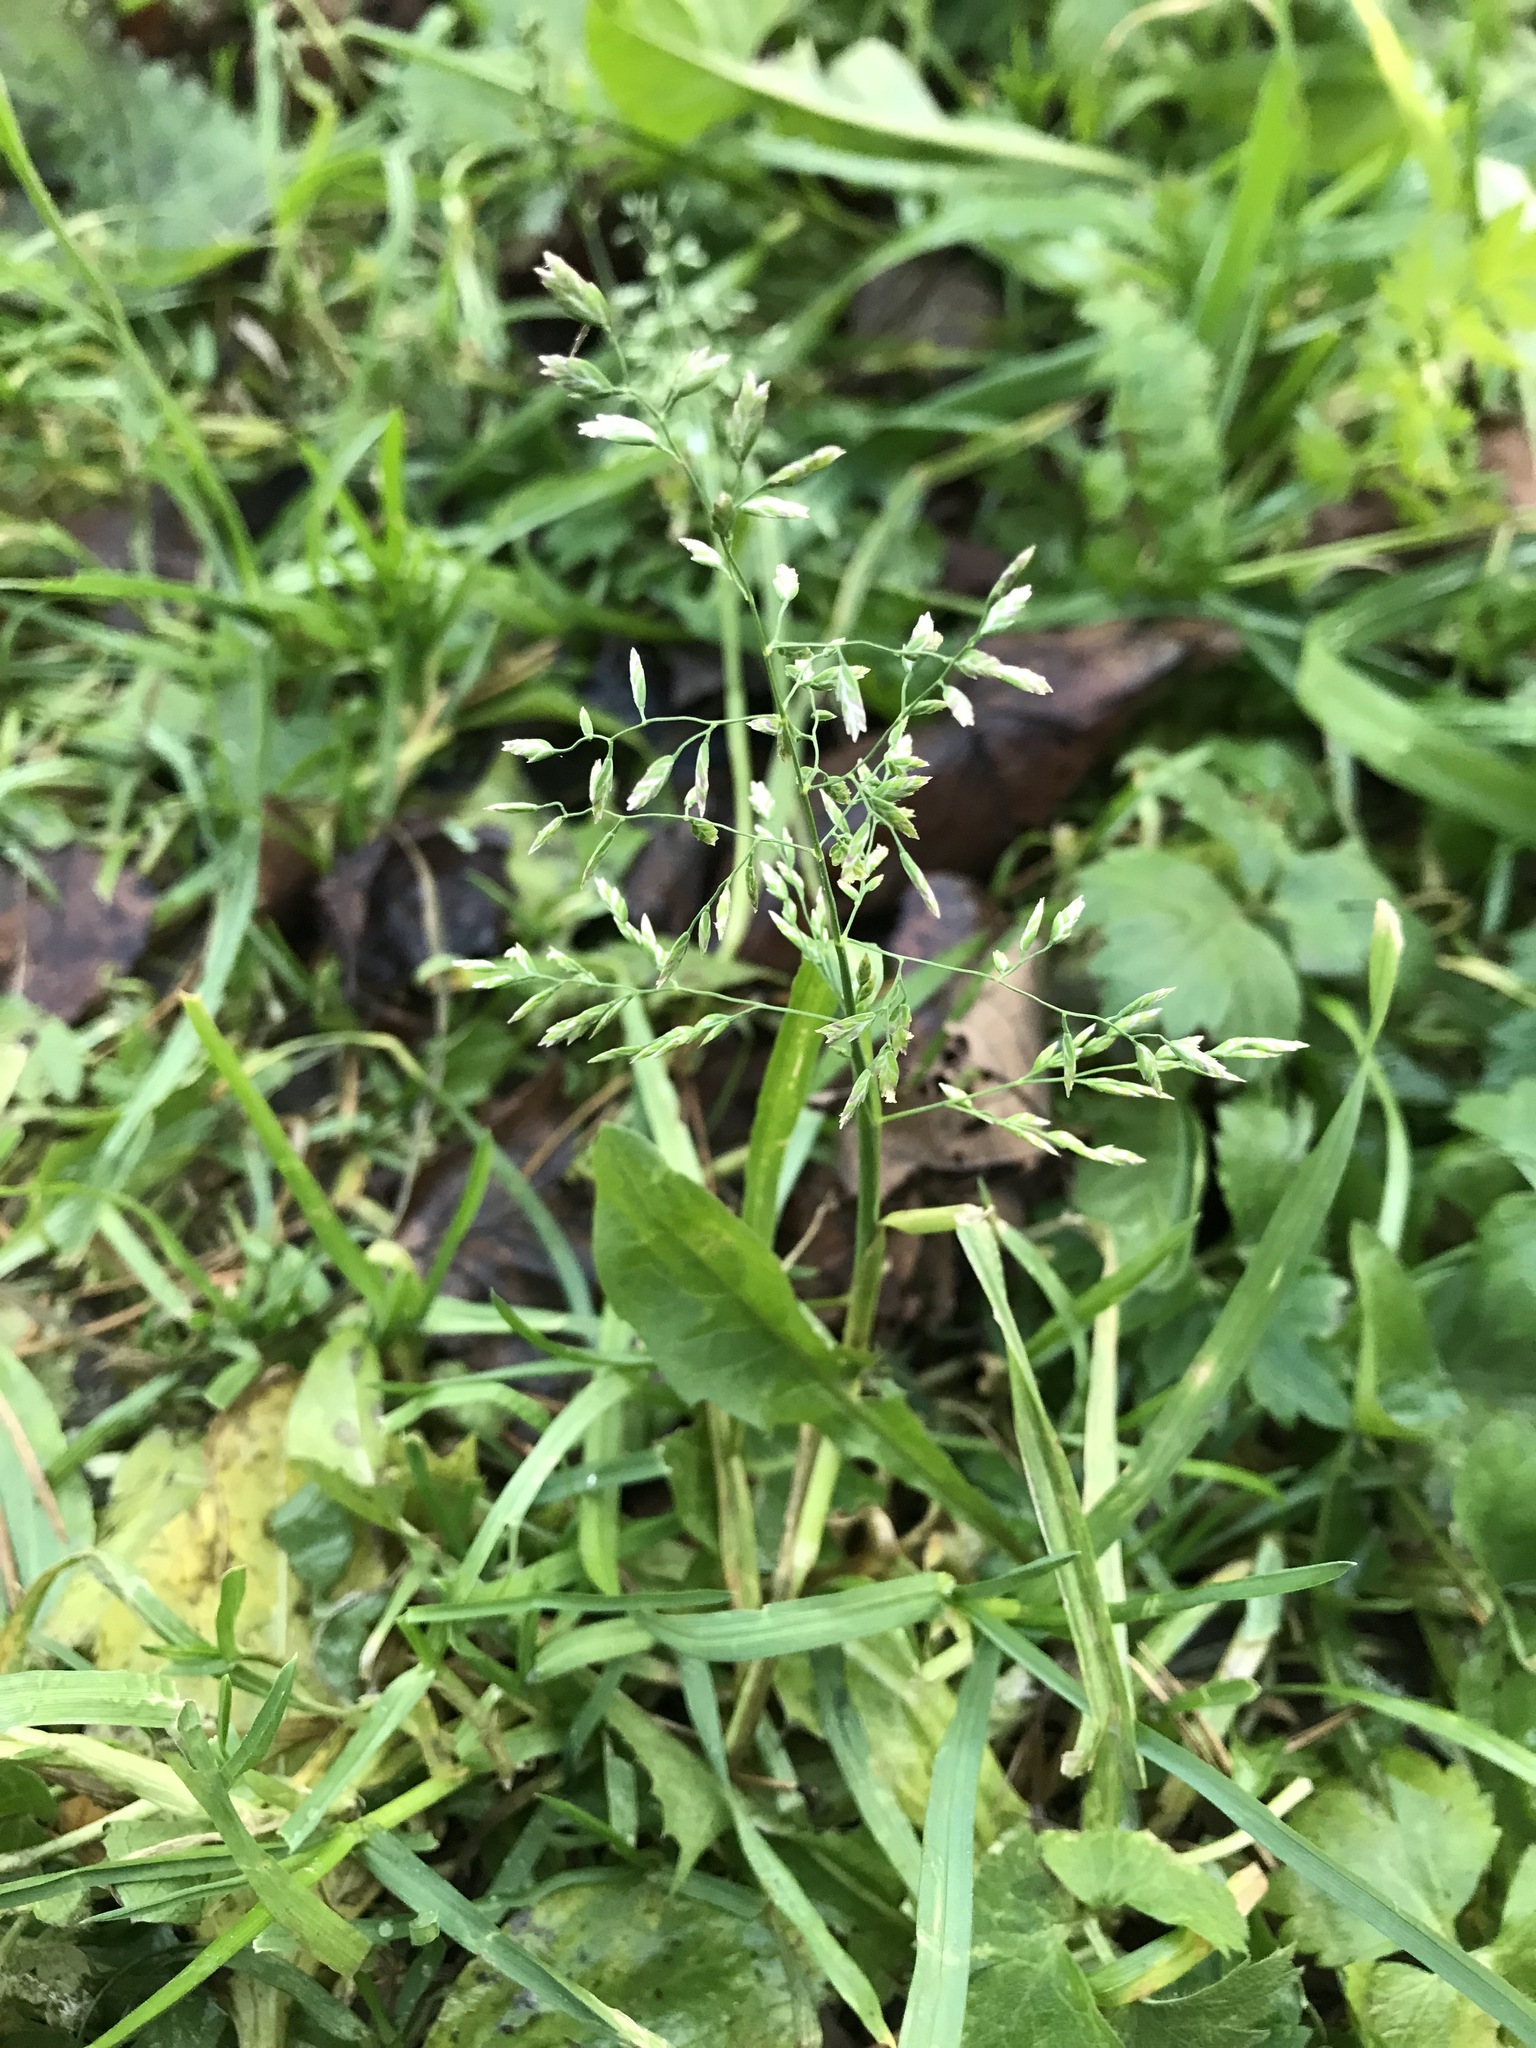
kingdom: Plantae
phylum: Tracheophyta
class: Liliopsida
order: Poales
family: Poaceae
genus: Poa
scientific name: Poa annua
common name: Annual bluegrass
